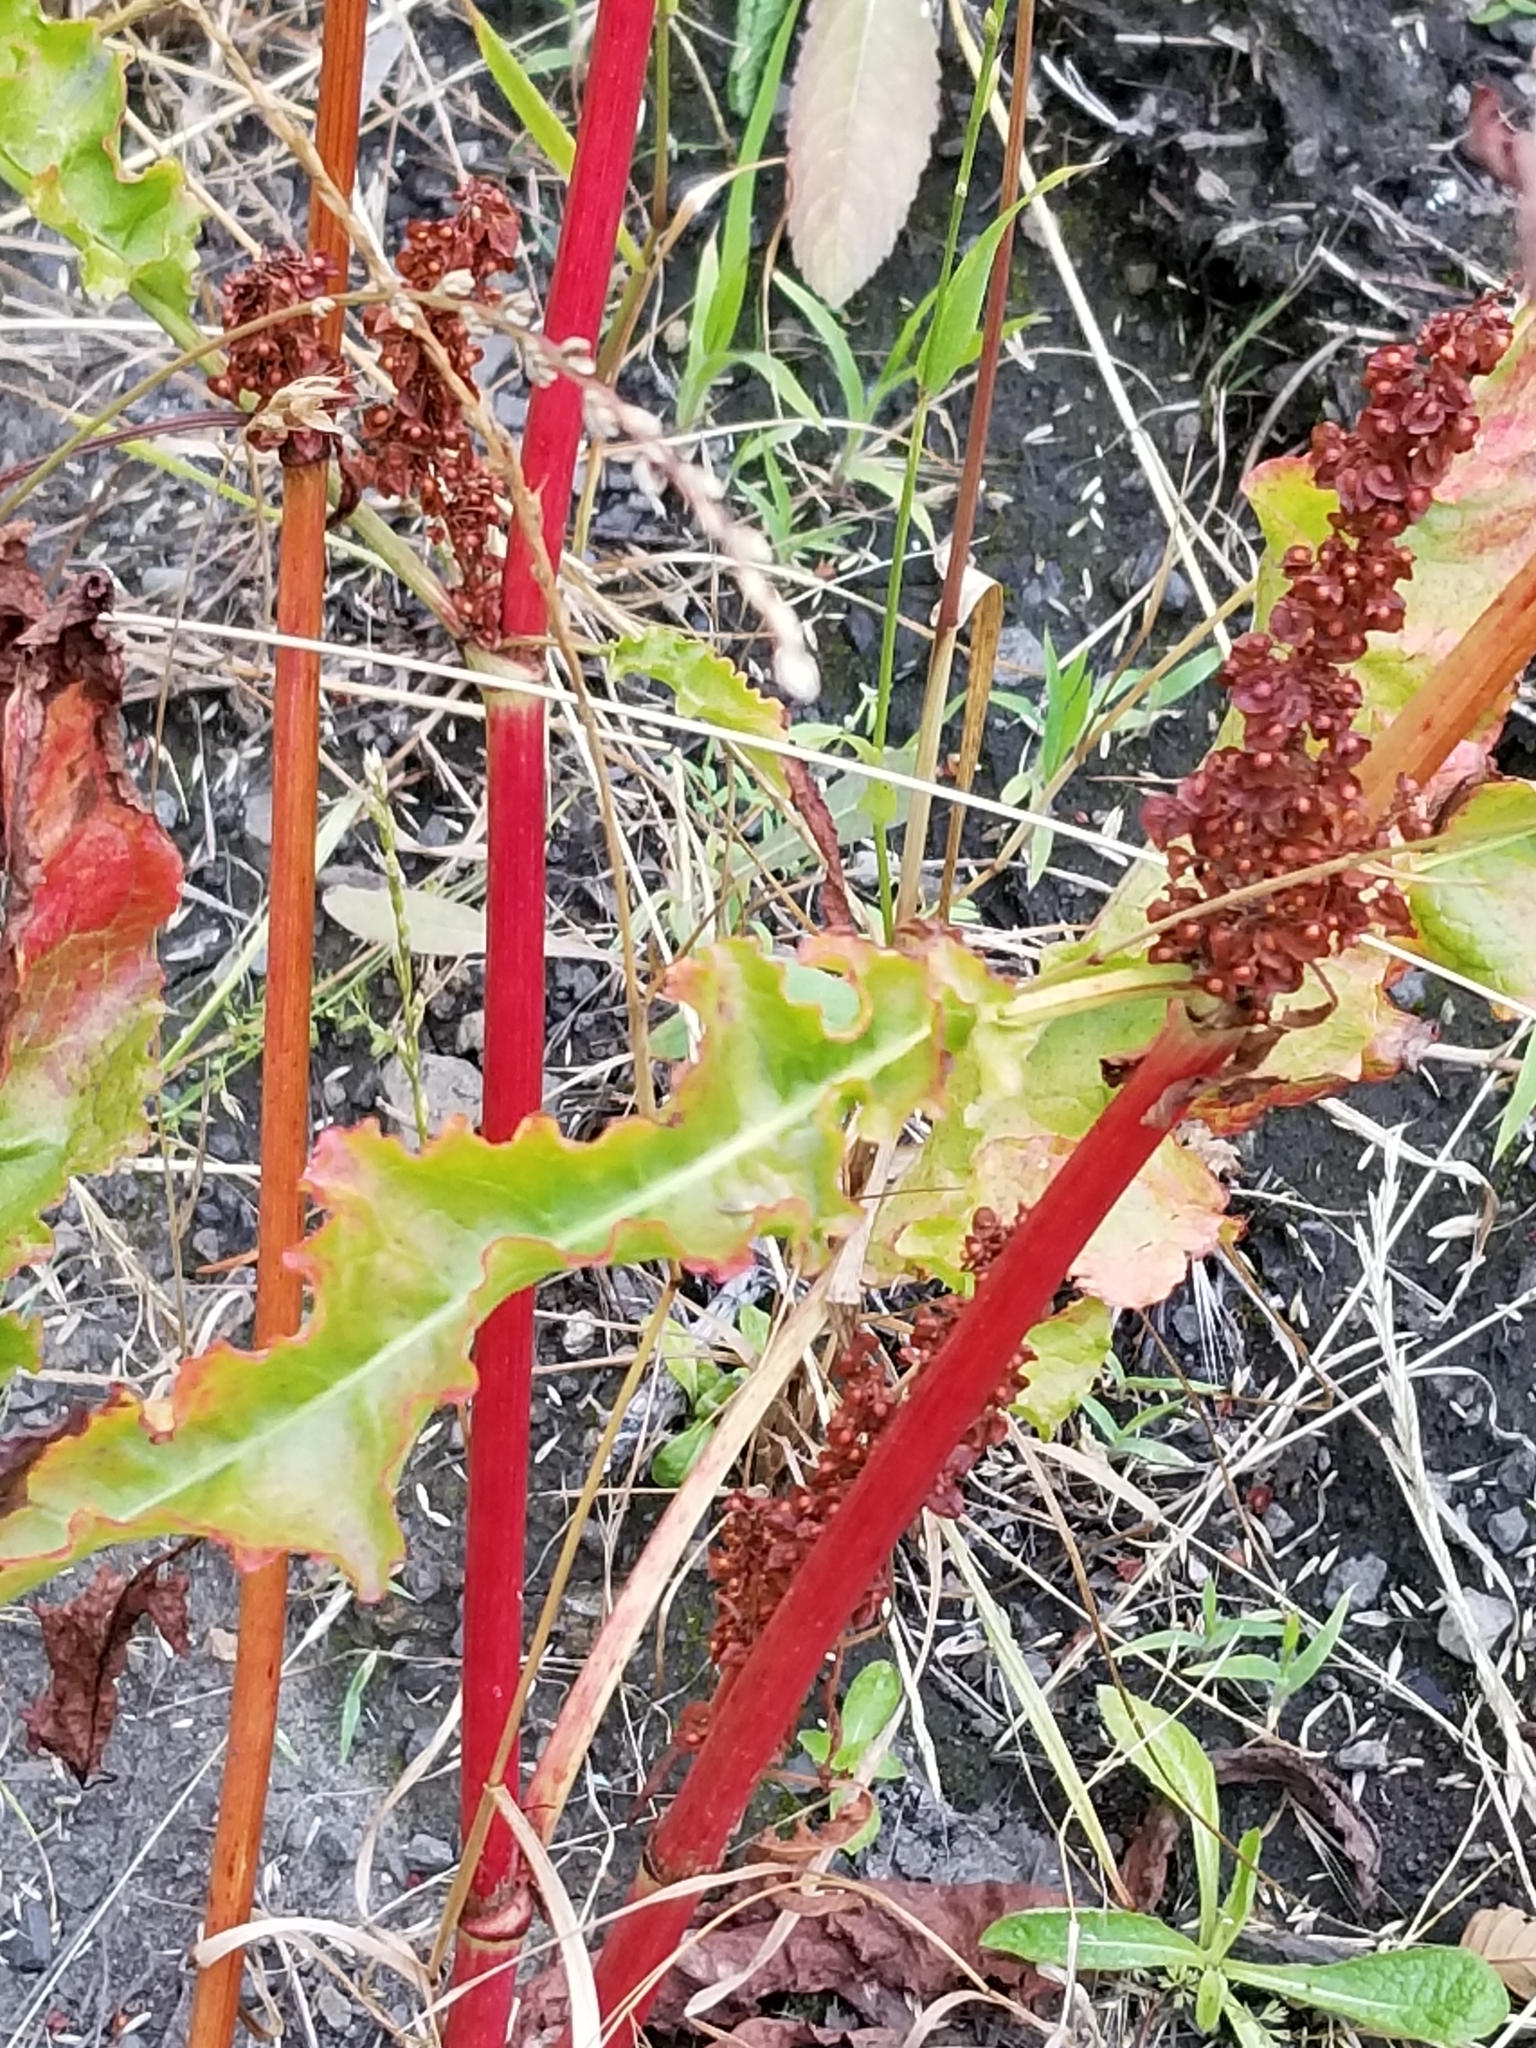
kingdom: Plantae
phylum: Tracheophyta
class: Magnoliopsida
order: Caryophyllales
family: Polygonaceae
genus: Rumex
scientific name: Rumex crispus
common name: Curled dock
